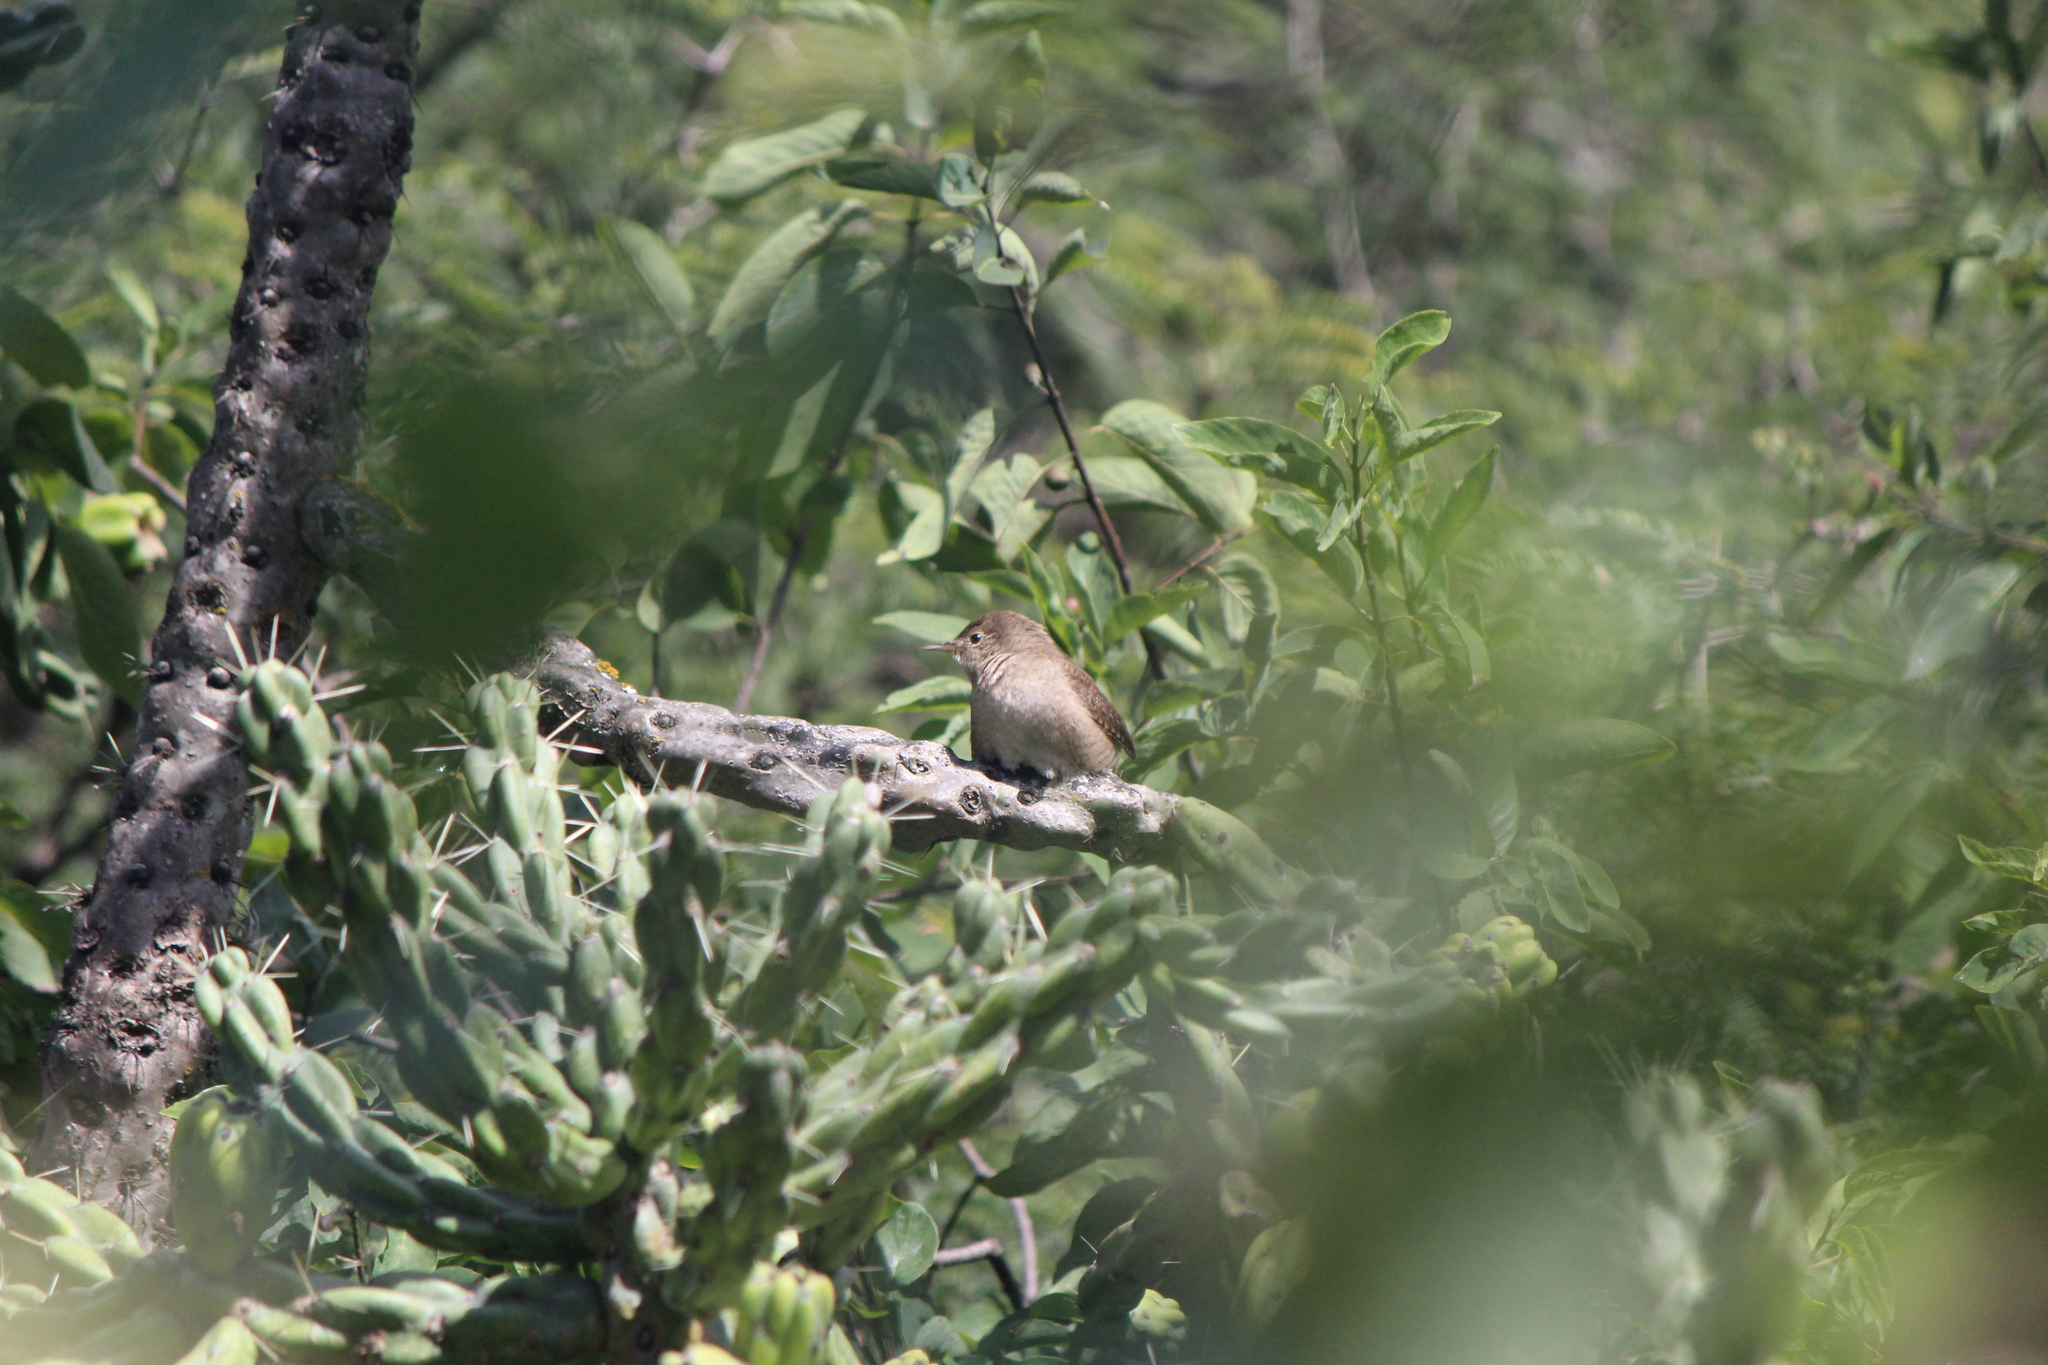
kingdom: Animalia
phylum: Chordata
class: Aves
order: Passeriformes
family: Troglodytidae
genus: Troglodytes
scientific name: Troglodytes aedon
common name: House wren
